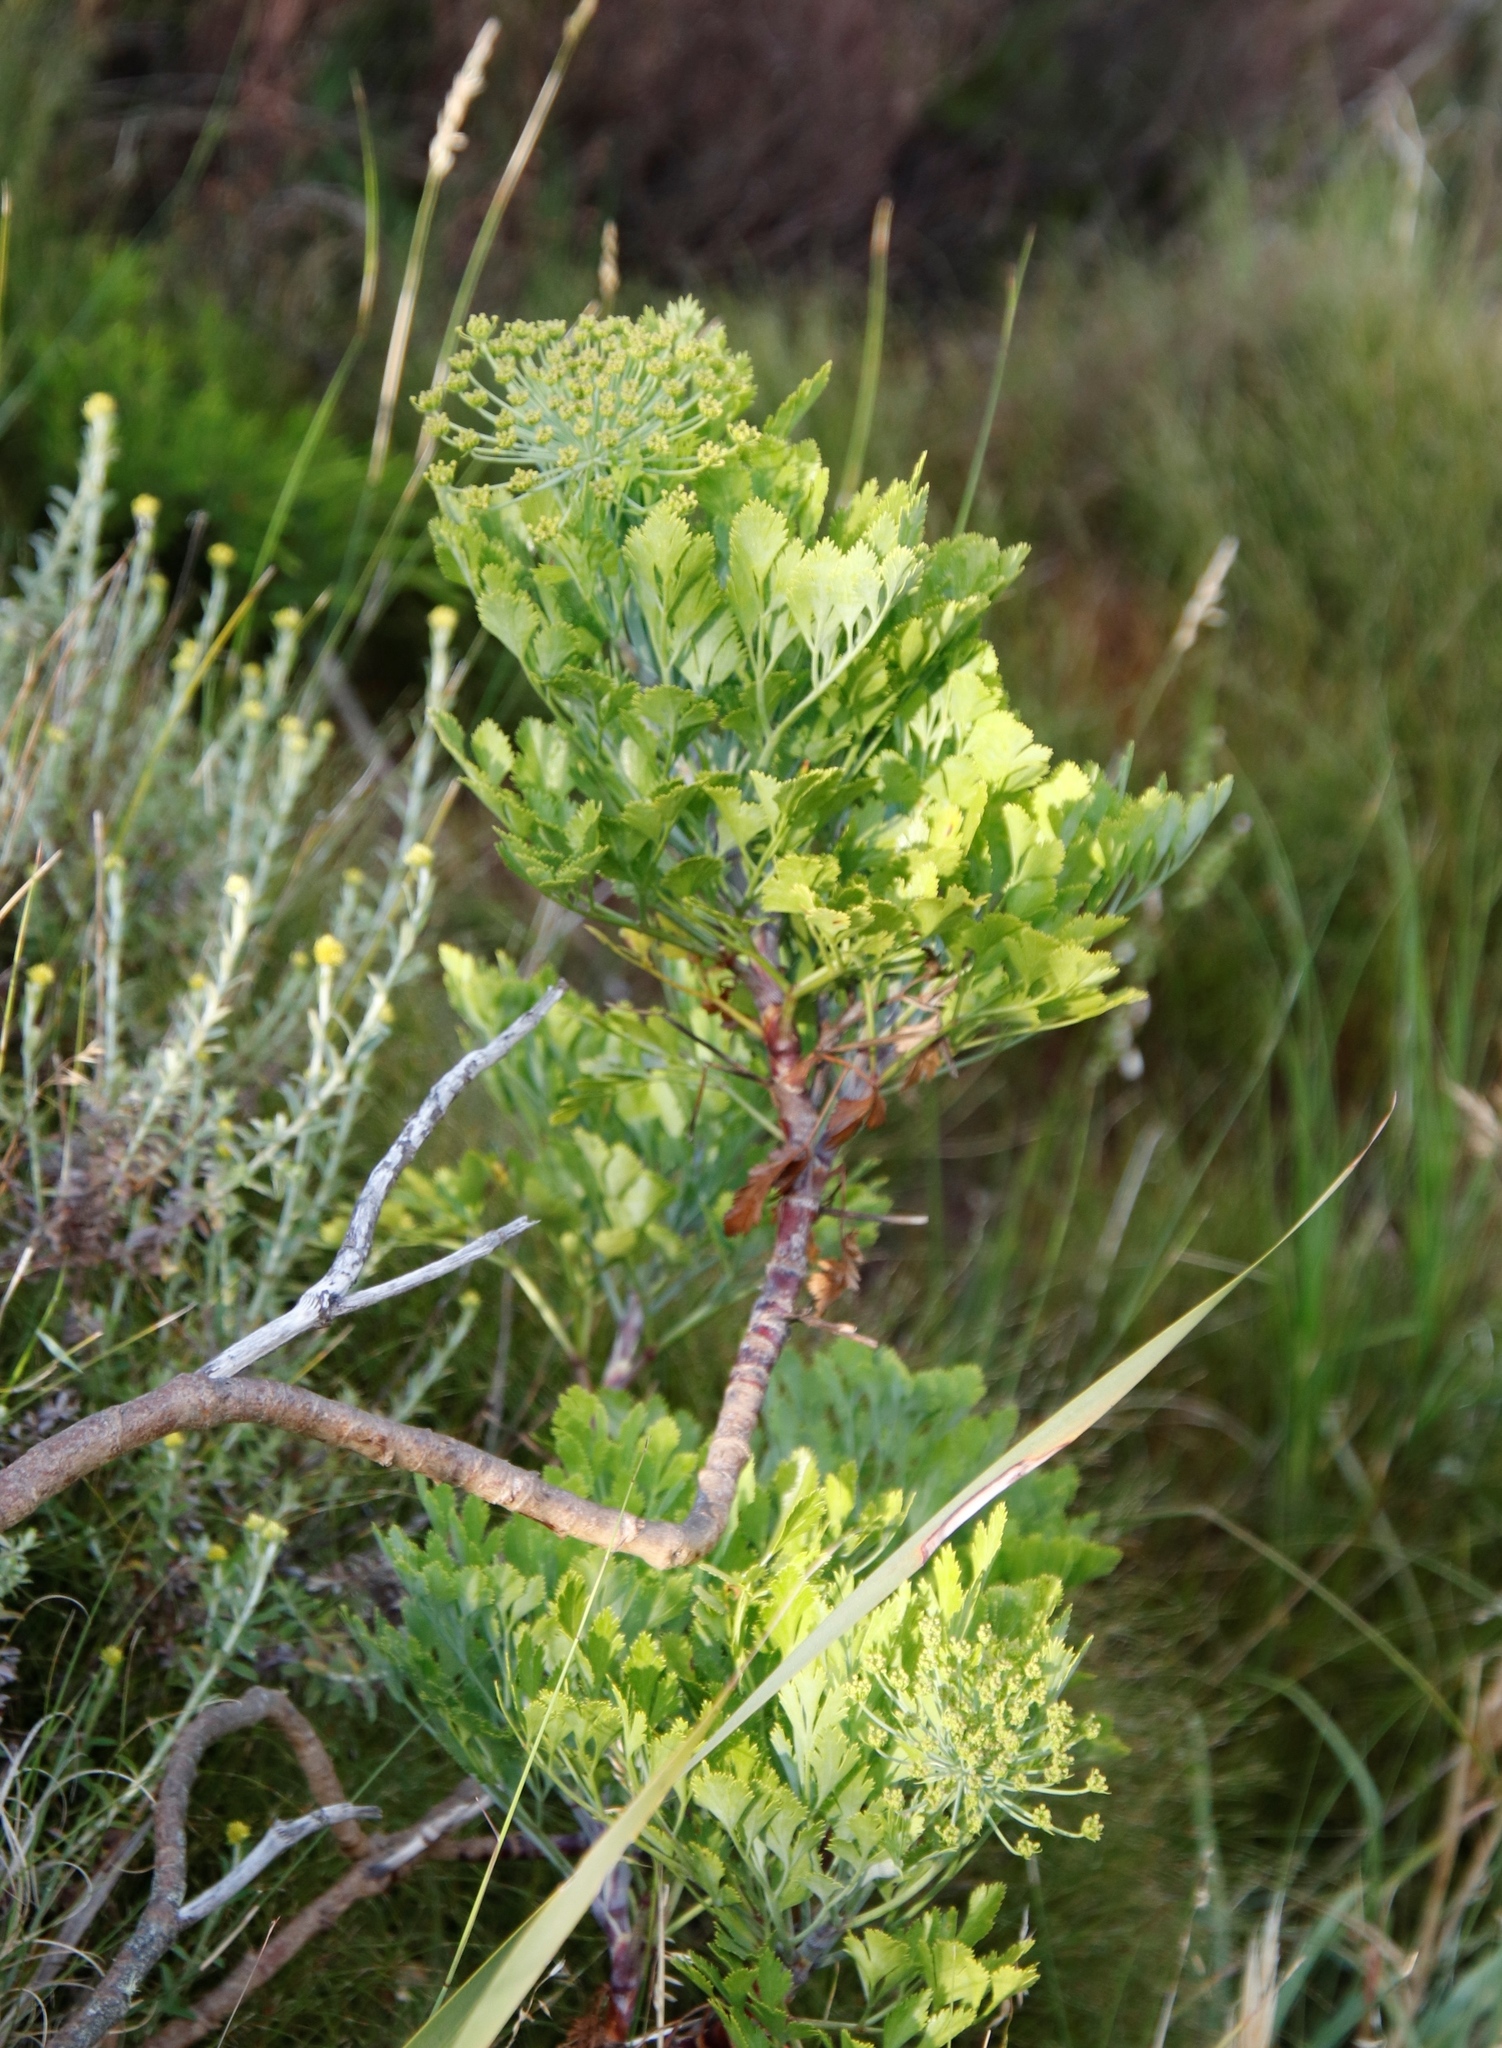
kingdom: Plantae
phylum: Tracheophyta
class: Magnoliopsida
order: Apiales
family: Apiaceae
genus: Notobubon
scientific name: Notobubon galbanum
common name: Blisterbush
